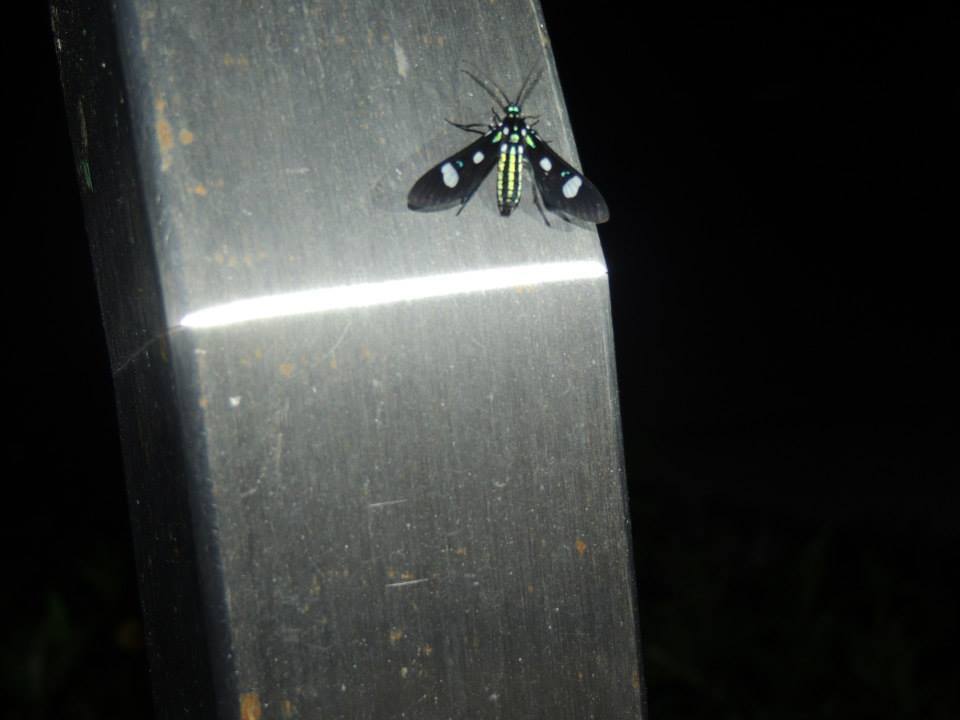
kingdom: Animalia
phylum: Arthropoda
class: Insecta
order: Lepidoptera
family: Erebidae
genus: Leucotmemis
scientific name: Leucotmemis nexa
